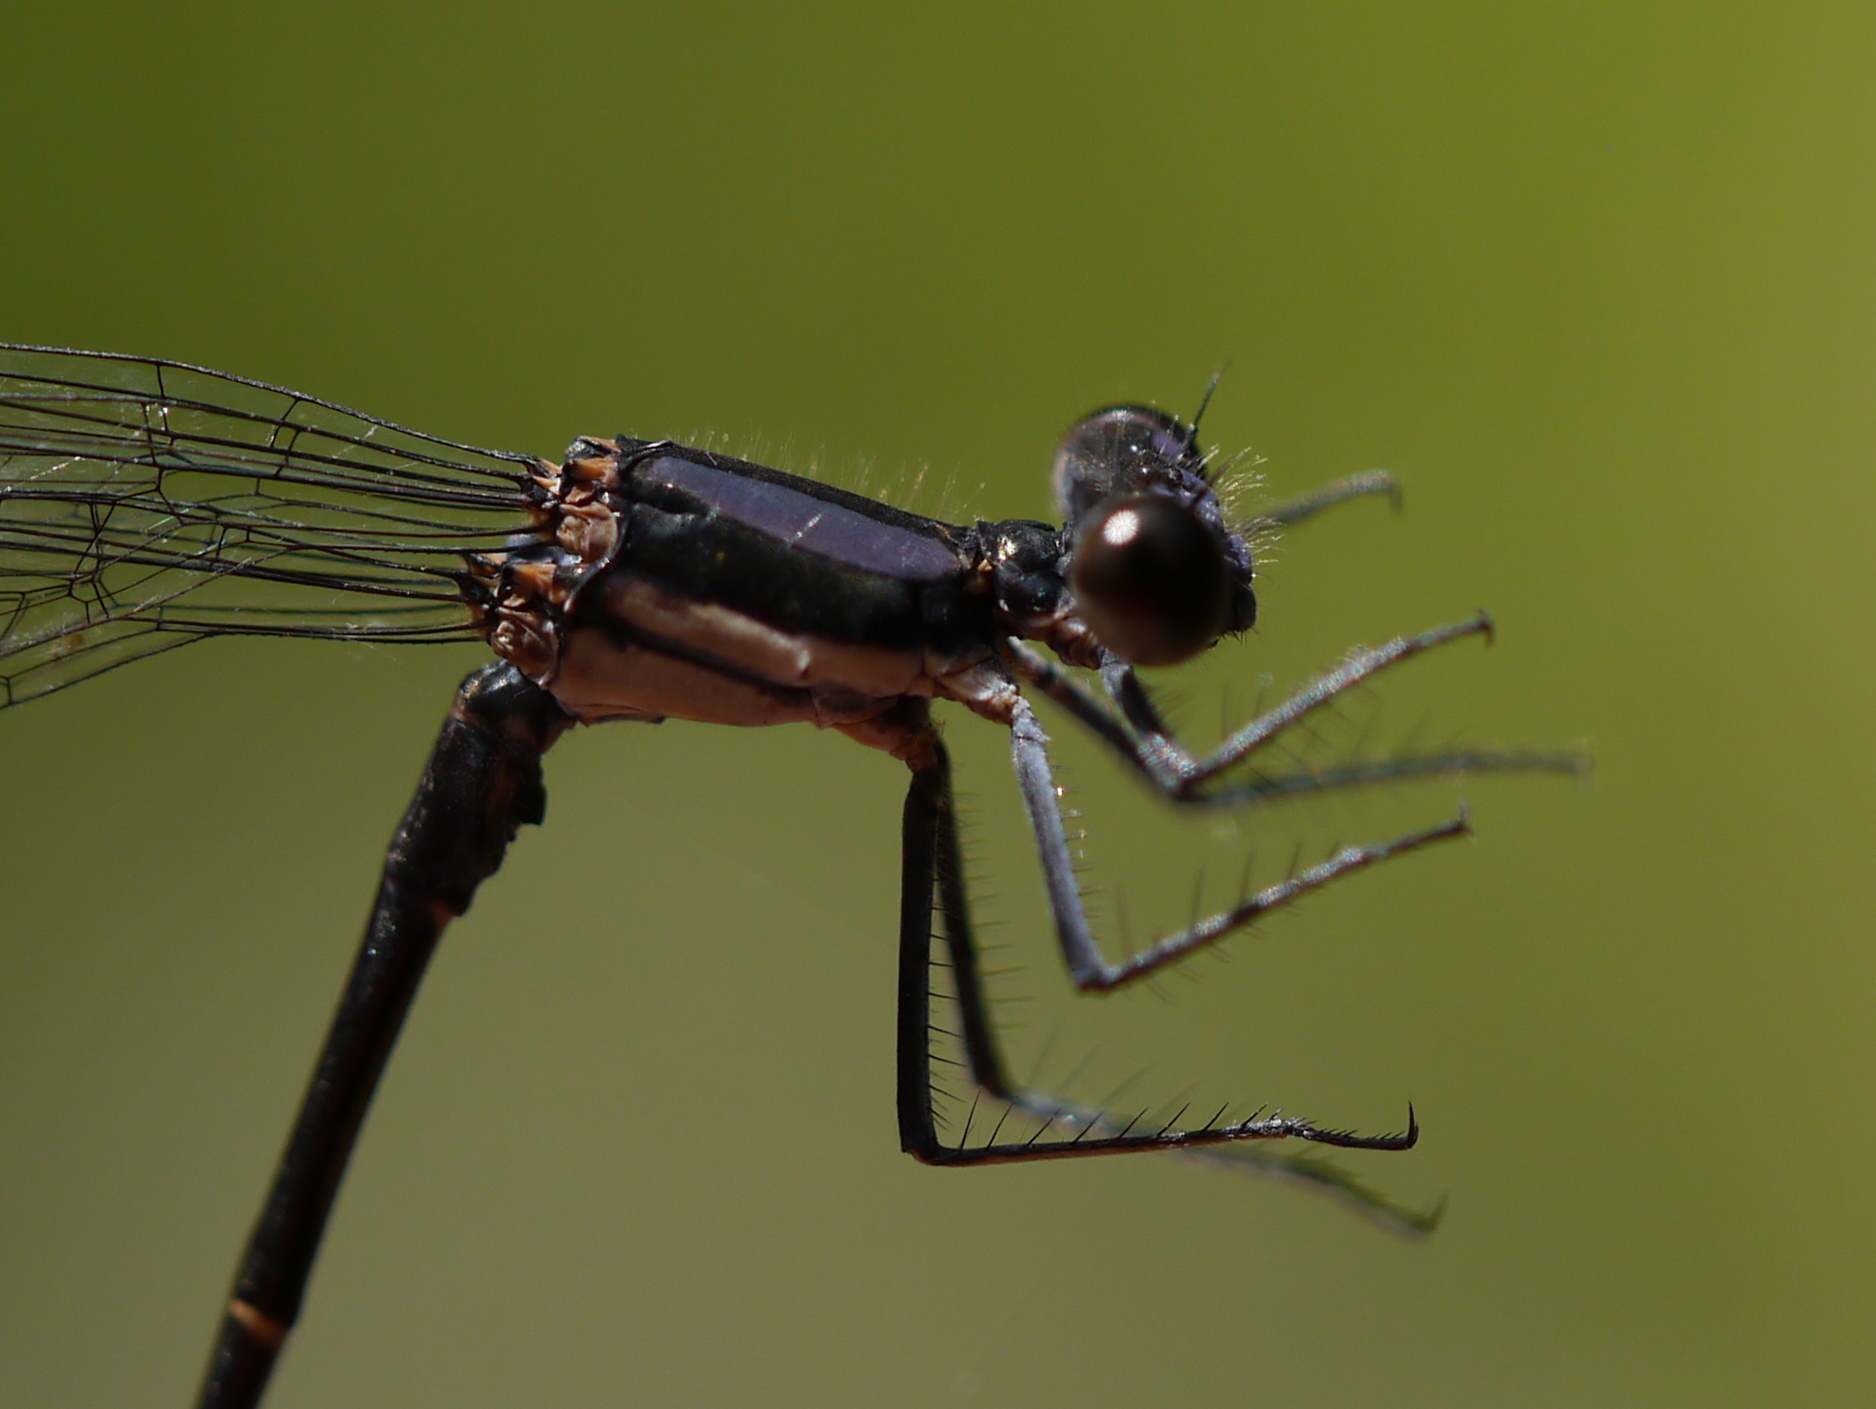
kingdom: Animalia
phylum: Arthropoda
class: Insecta
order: Odonata
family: Coenagrionidae
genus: Argia
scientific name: Argia tibialis
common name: Blue-tipped dancer
